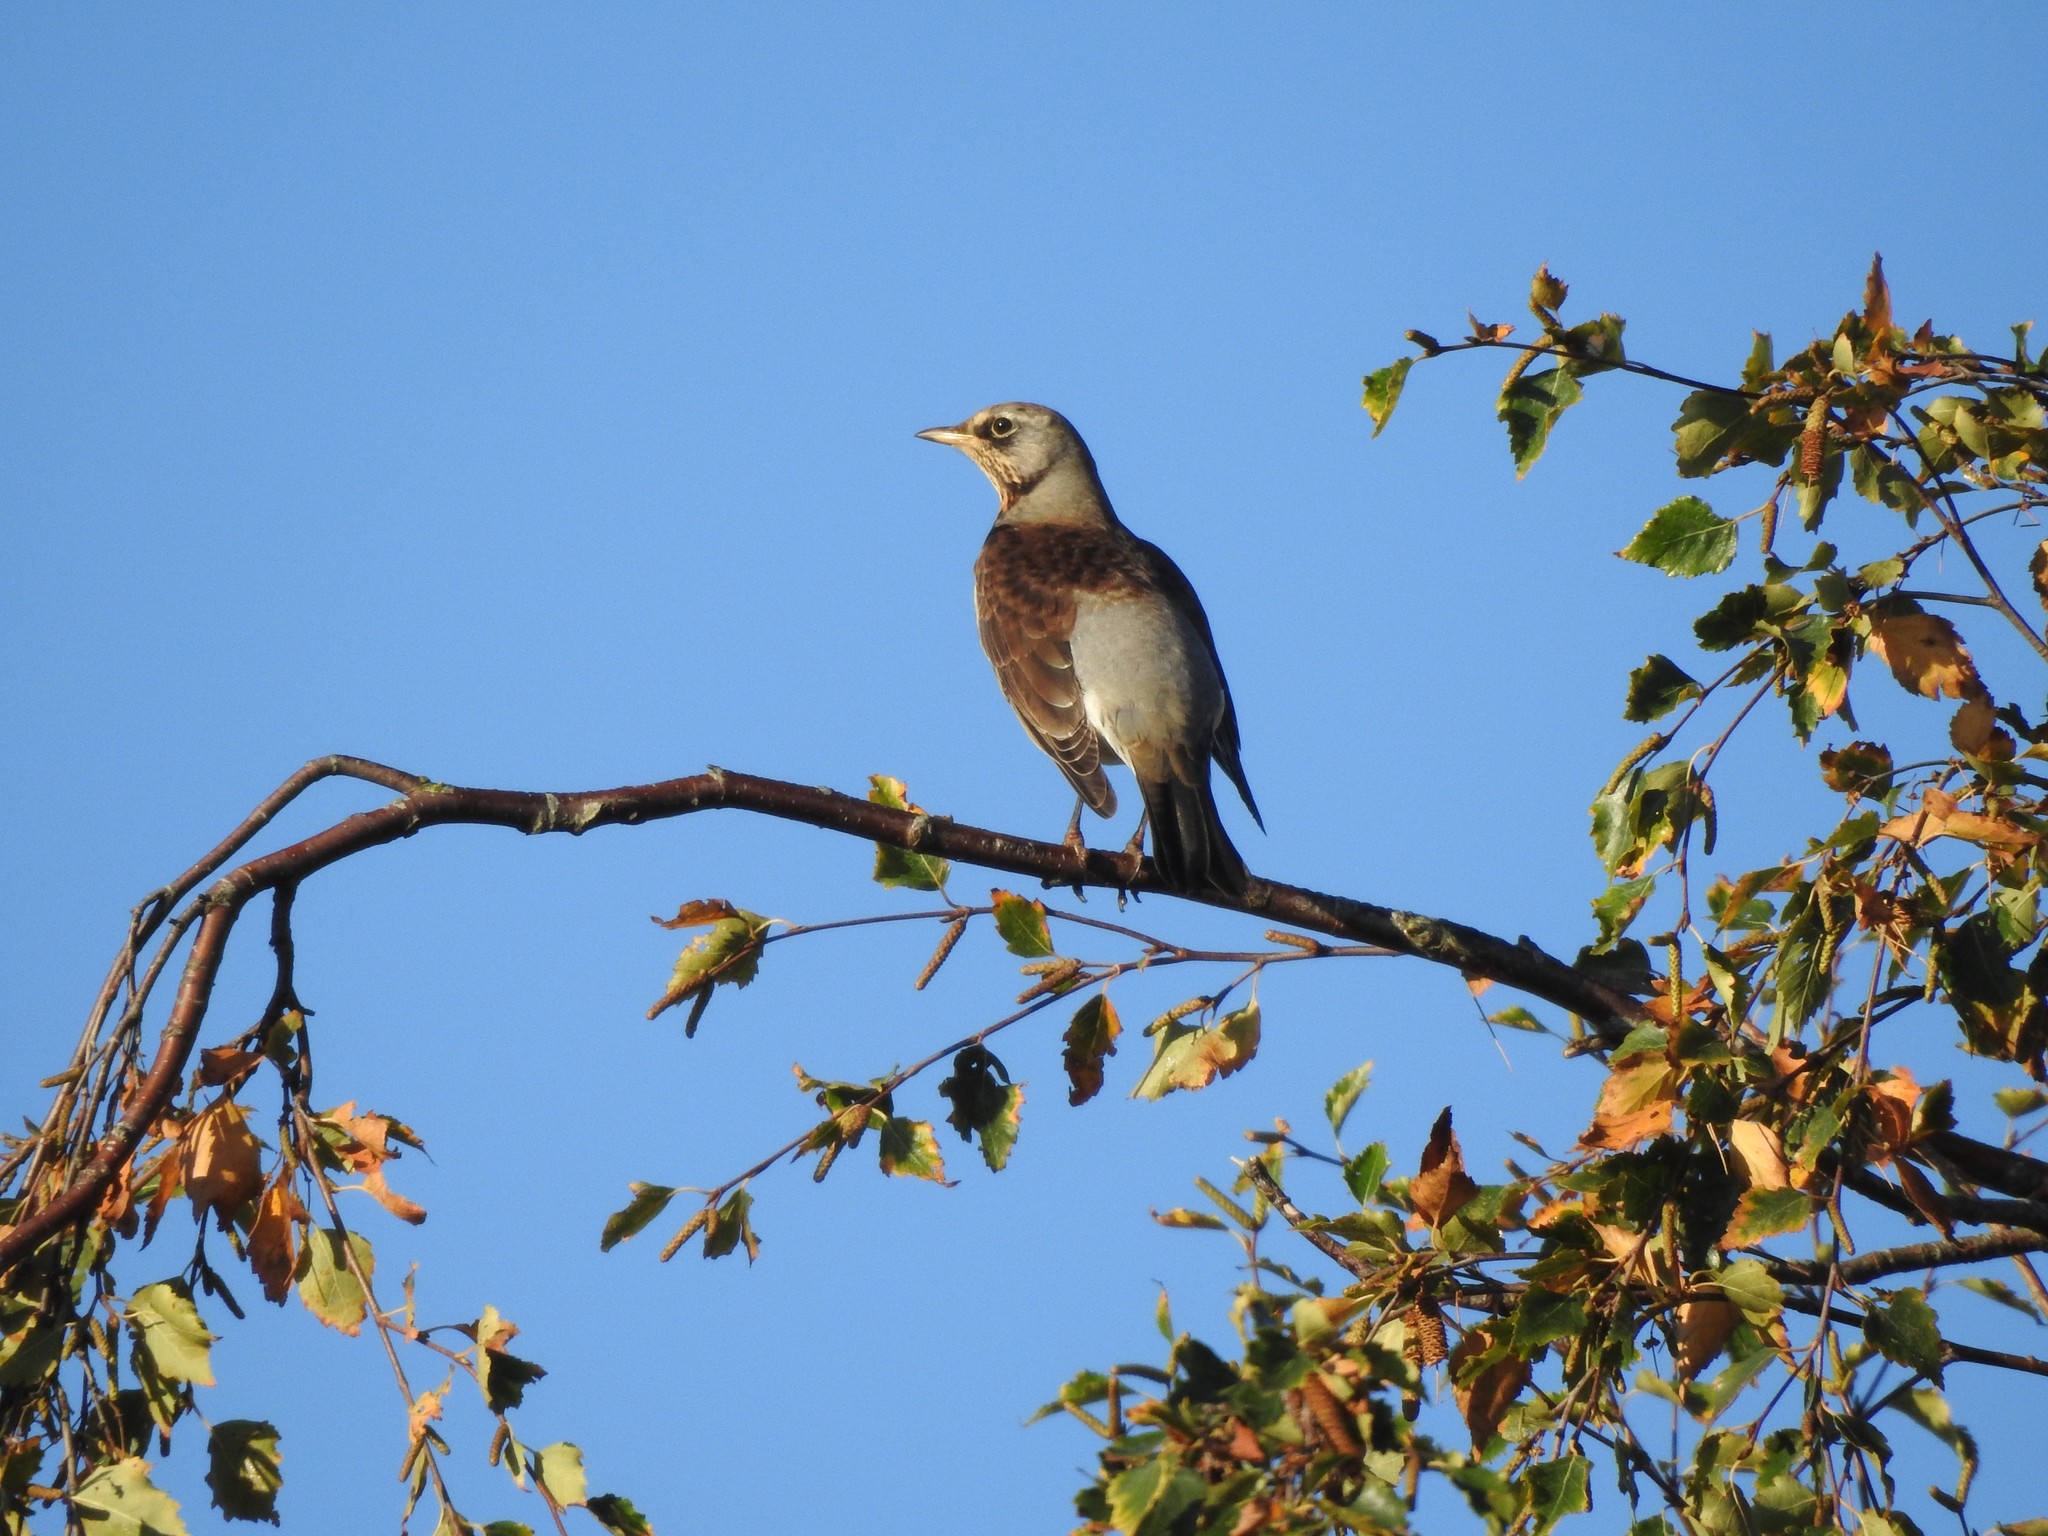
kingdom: Animalia
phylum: Chordata
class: Aves
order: Passeriformes
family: Turdidae
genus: Turdus
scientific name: Turdus pilaris
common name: Fieldfare
